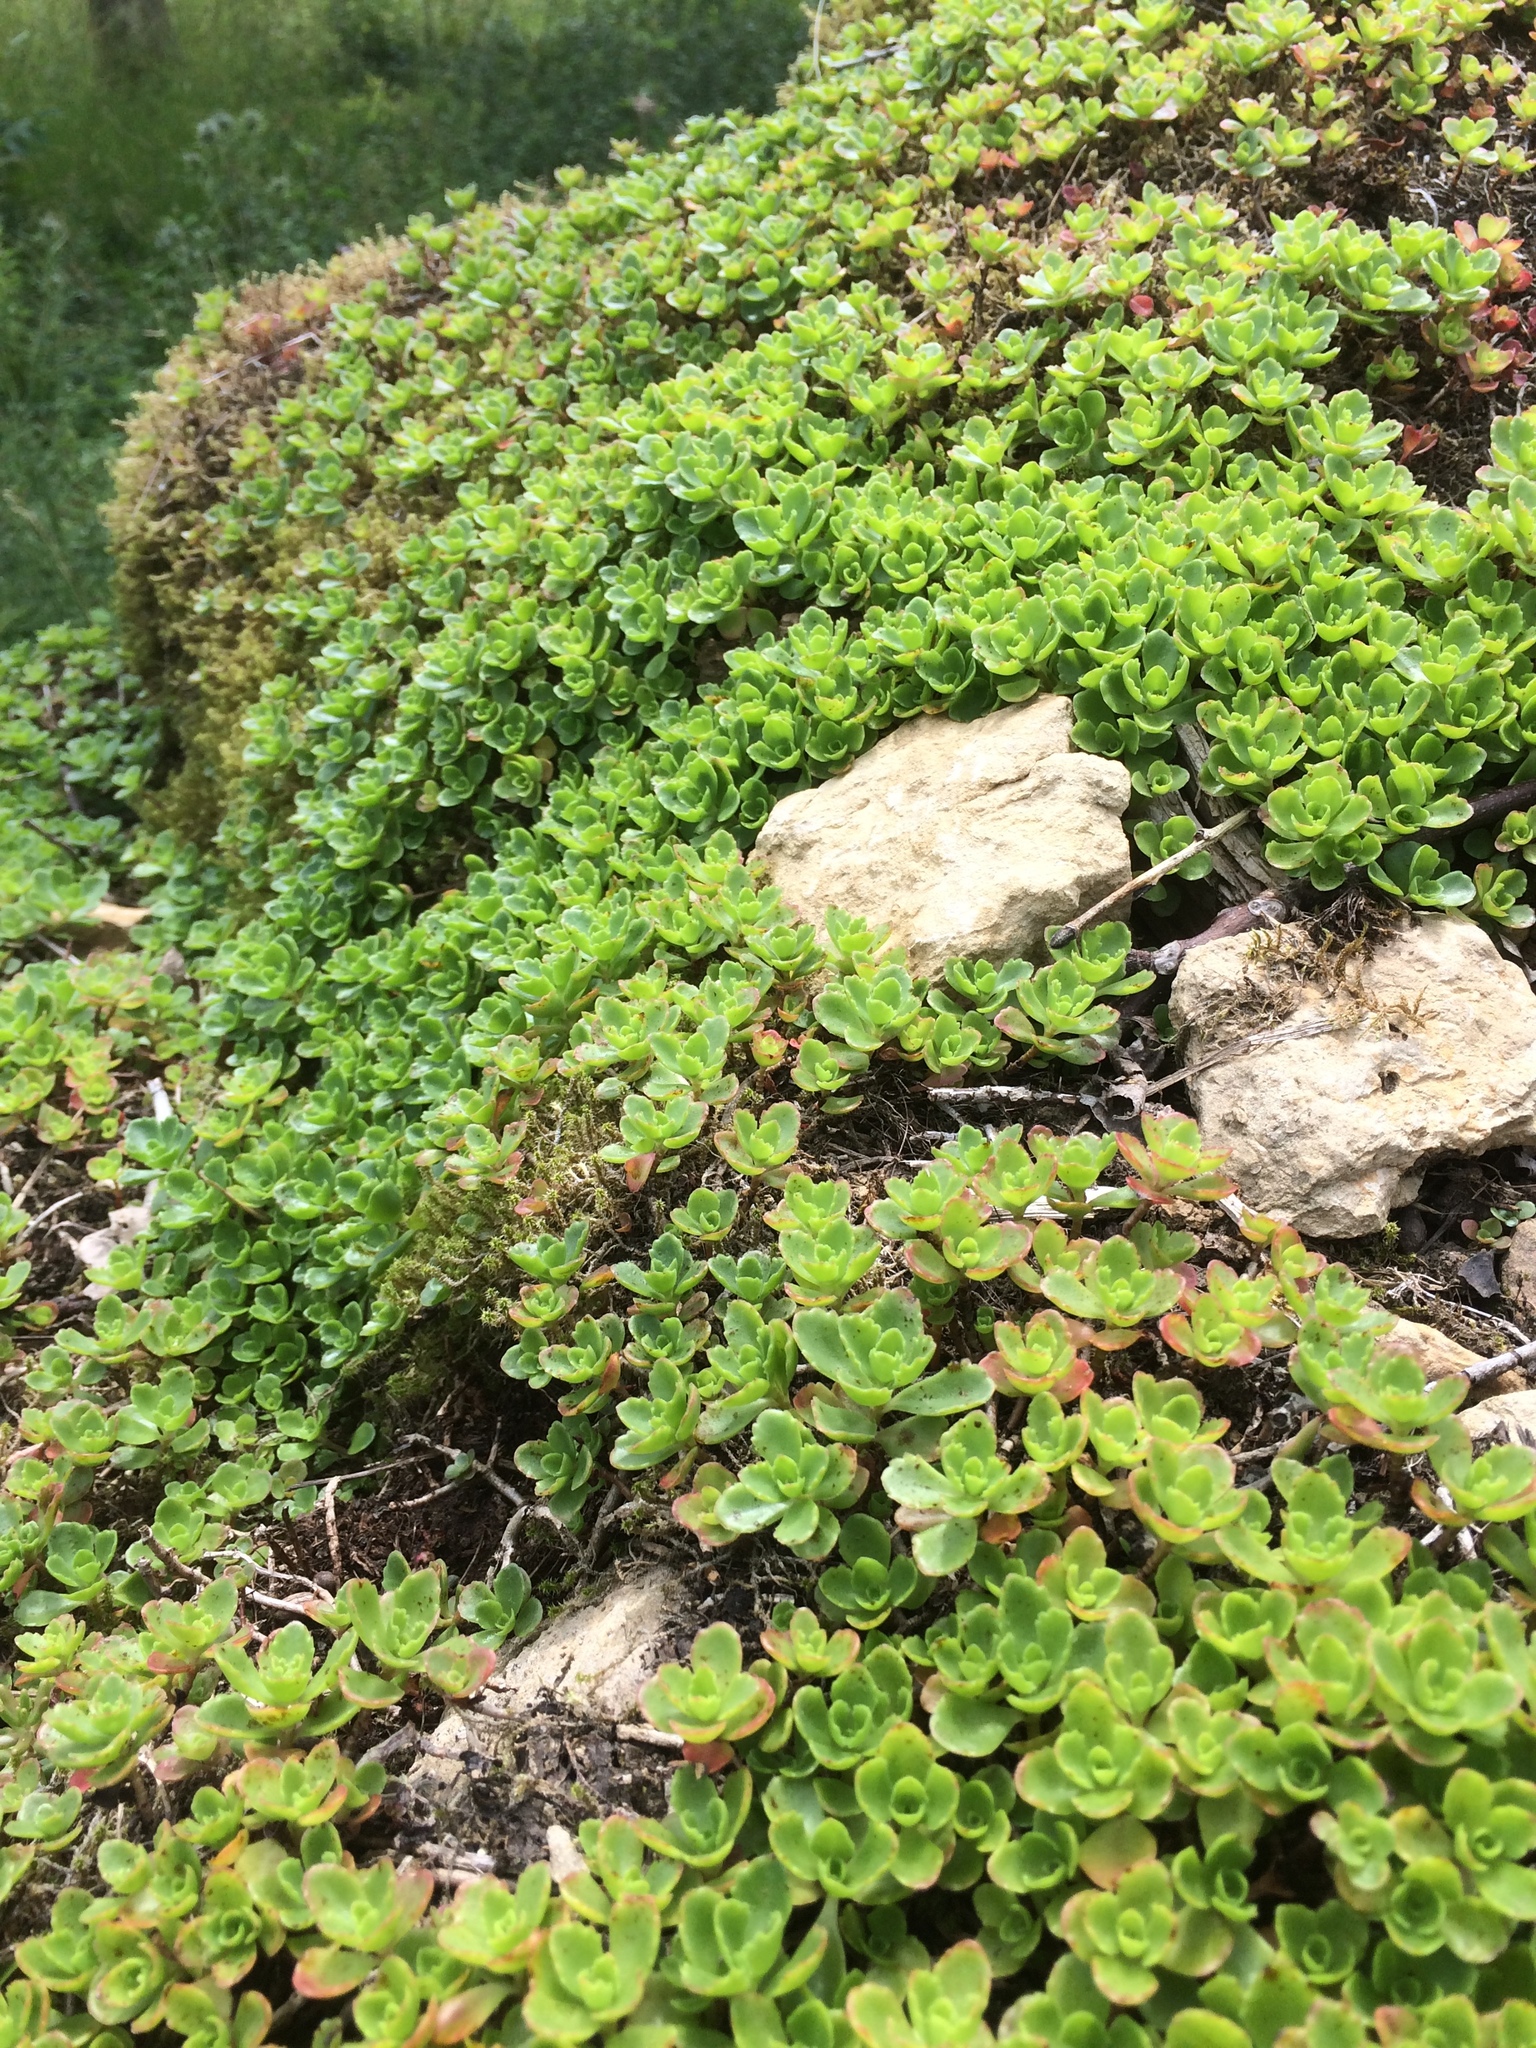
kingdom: Plantae
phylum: Tracheophyta
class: Magnoliopsida
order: Saxifragales
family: Crassulaceae
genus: Phedimus
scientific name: Phedimus spurius
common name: Caucasian stonecrop
